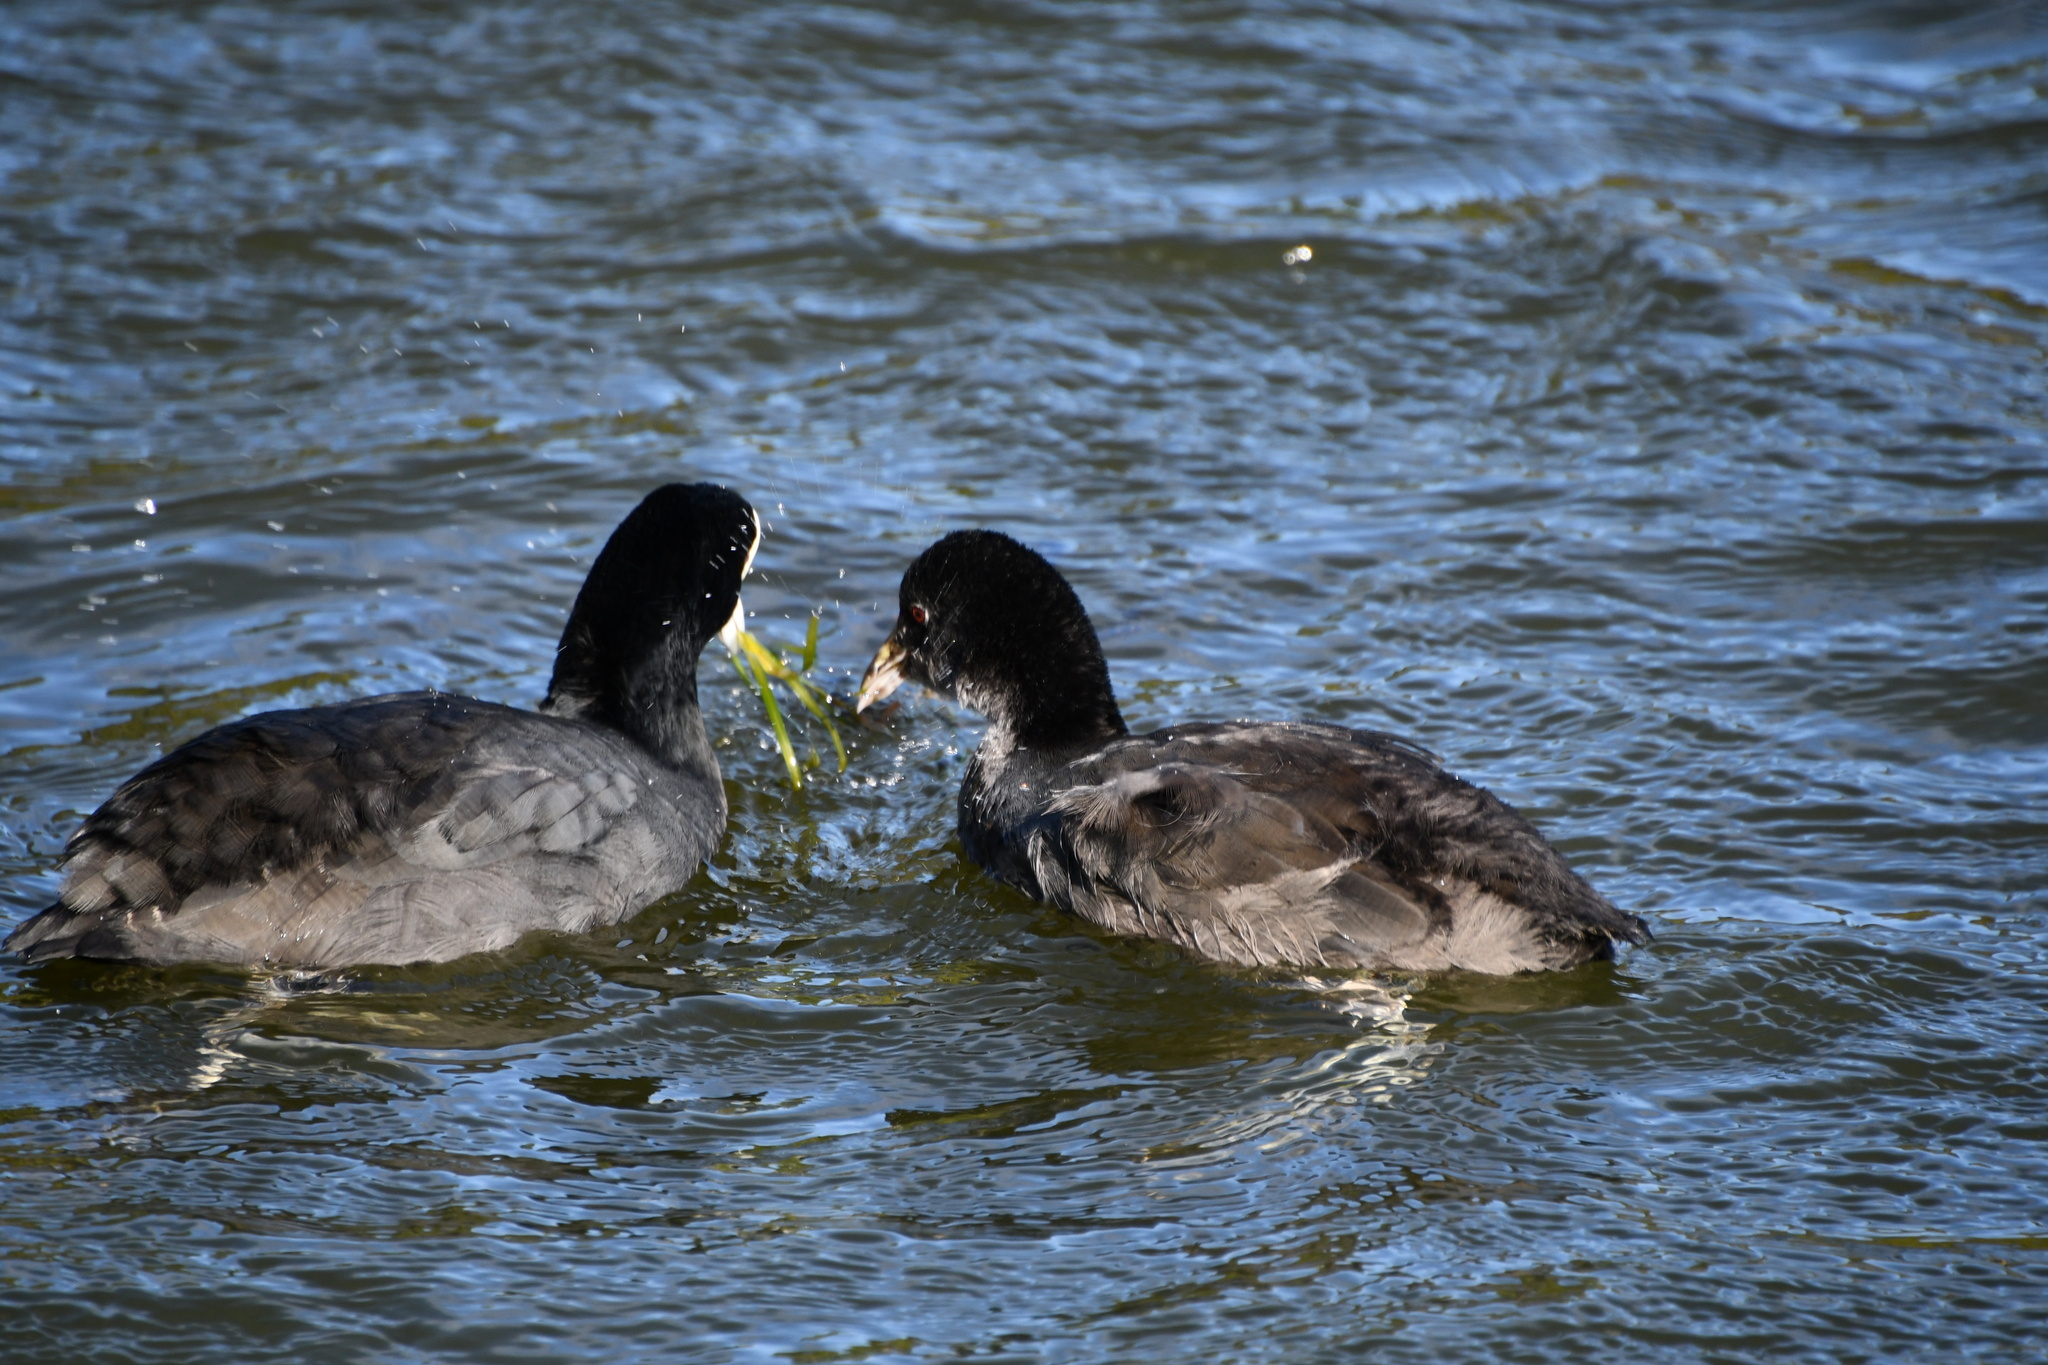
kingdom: Animalia
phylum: Chordata
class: Aves
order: Gruiformes
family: Rallidae
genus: Fulica
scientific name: Fulica atra
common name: Eurasian coot
